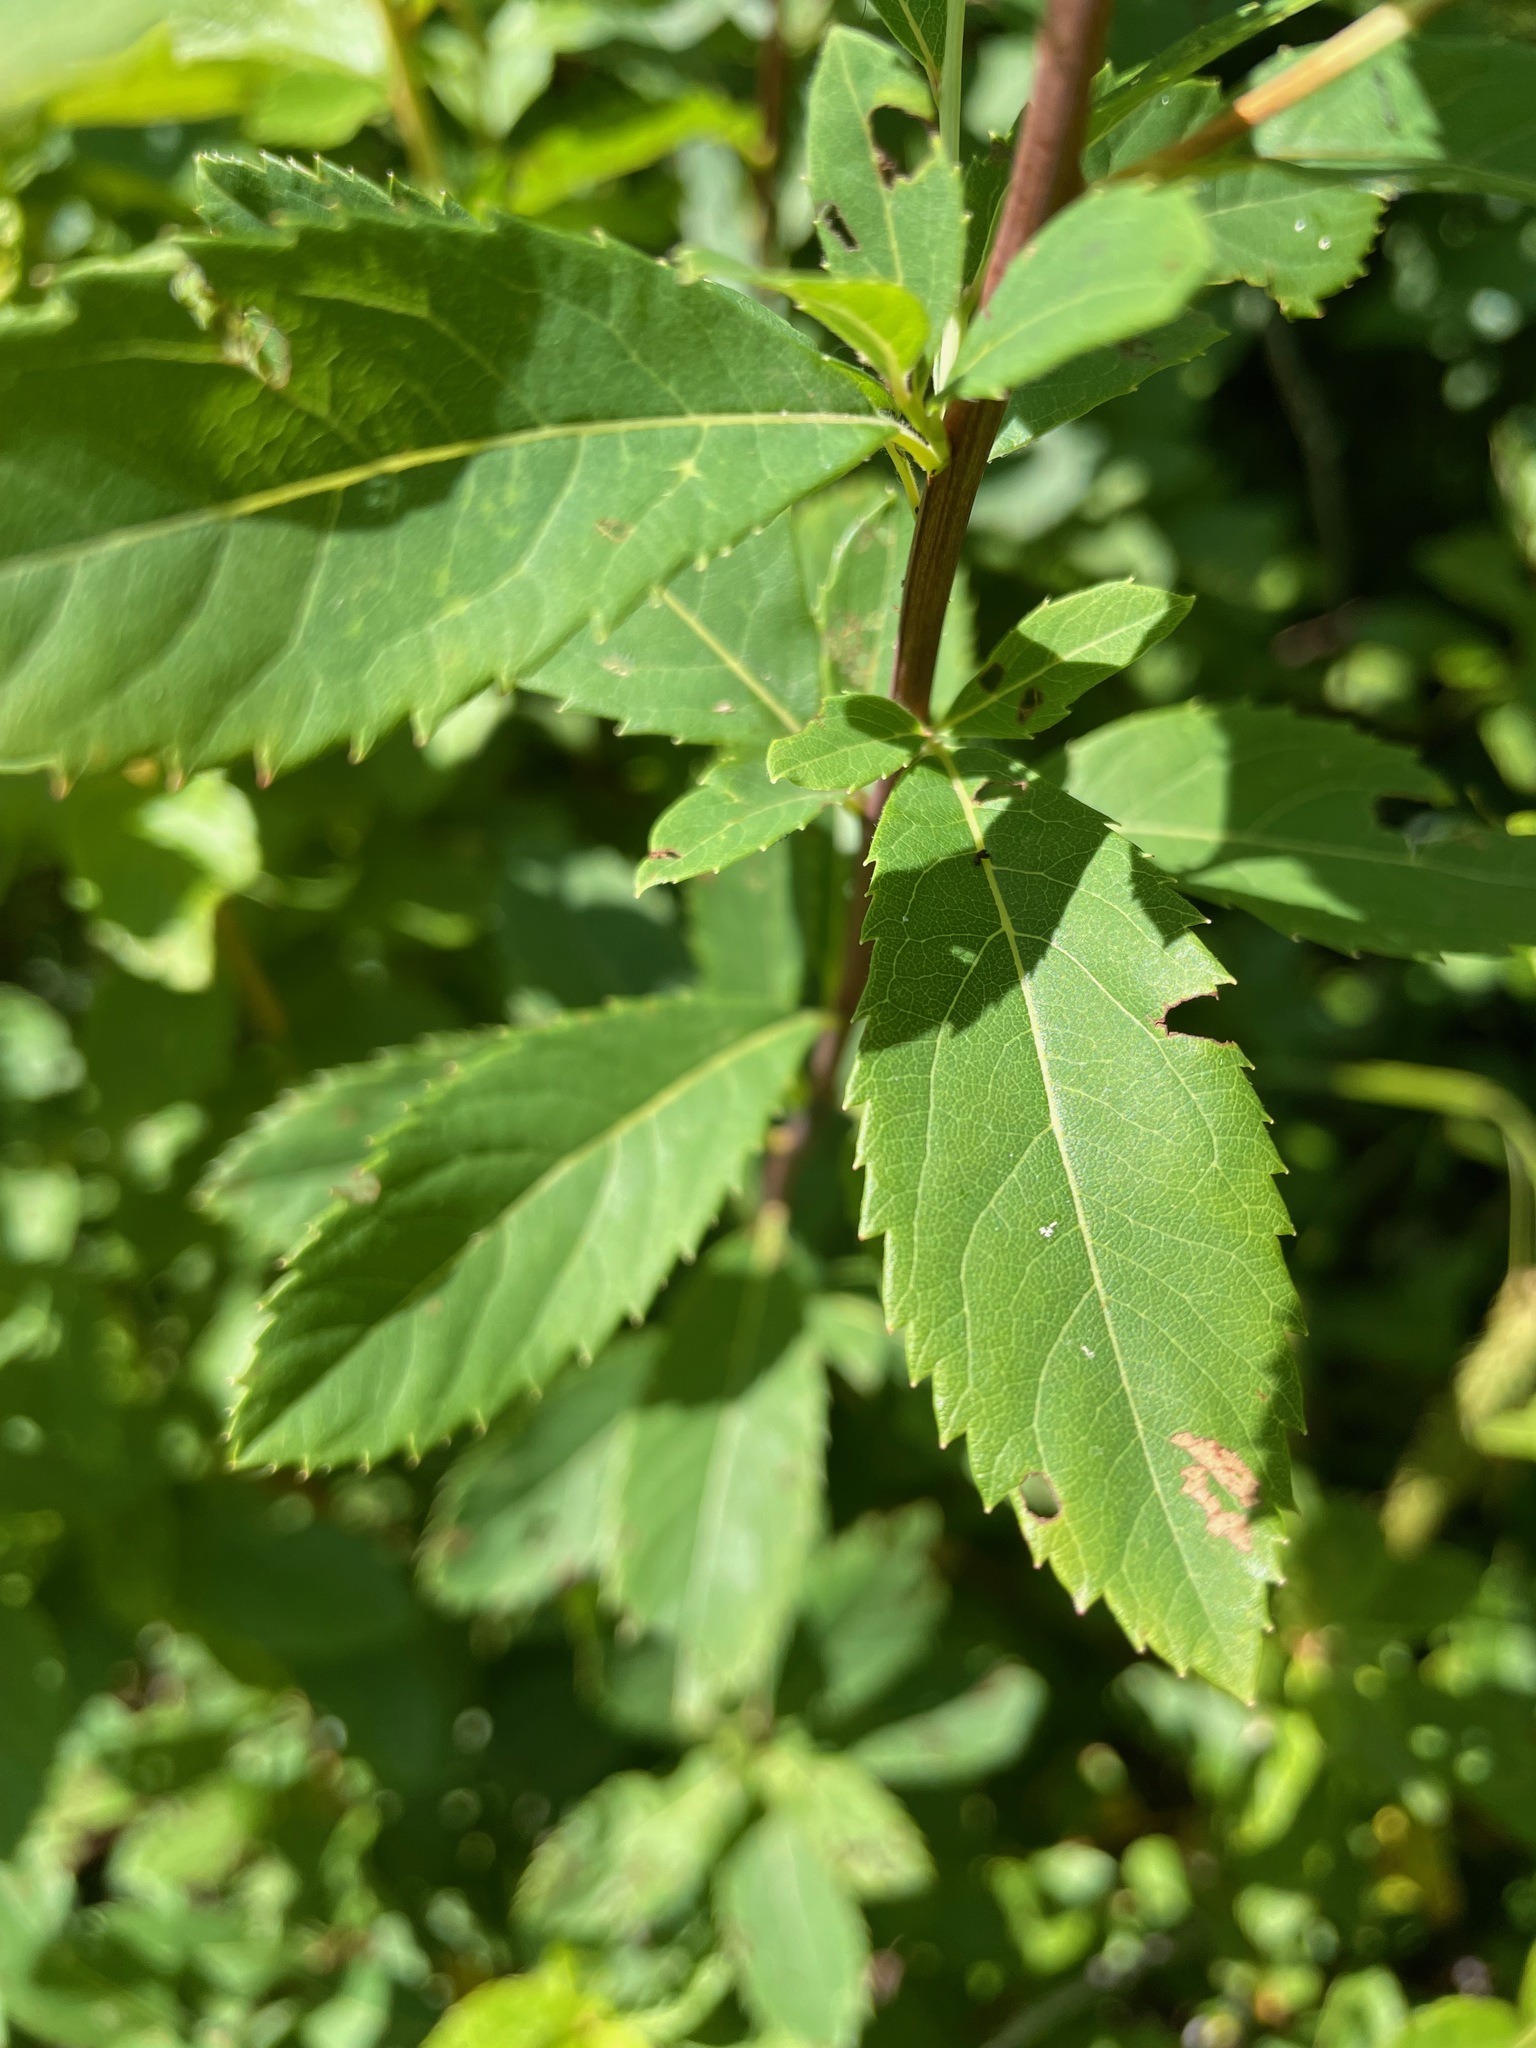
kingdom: Plantae
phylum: Tracheophyta
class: Magnoliopsida
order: Rosales
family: Rosaceae
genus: Spiraea
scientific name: Spiraea alba
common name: Pale bridewort
